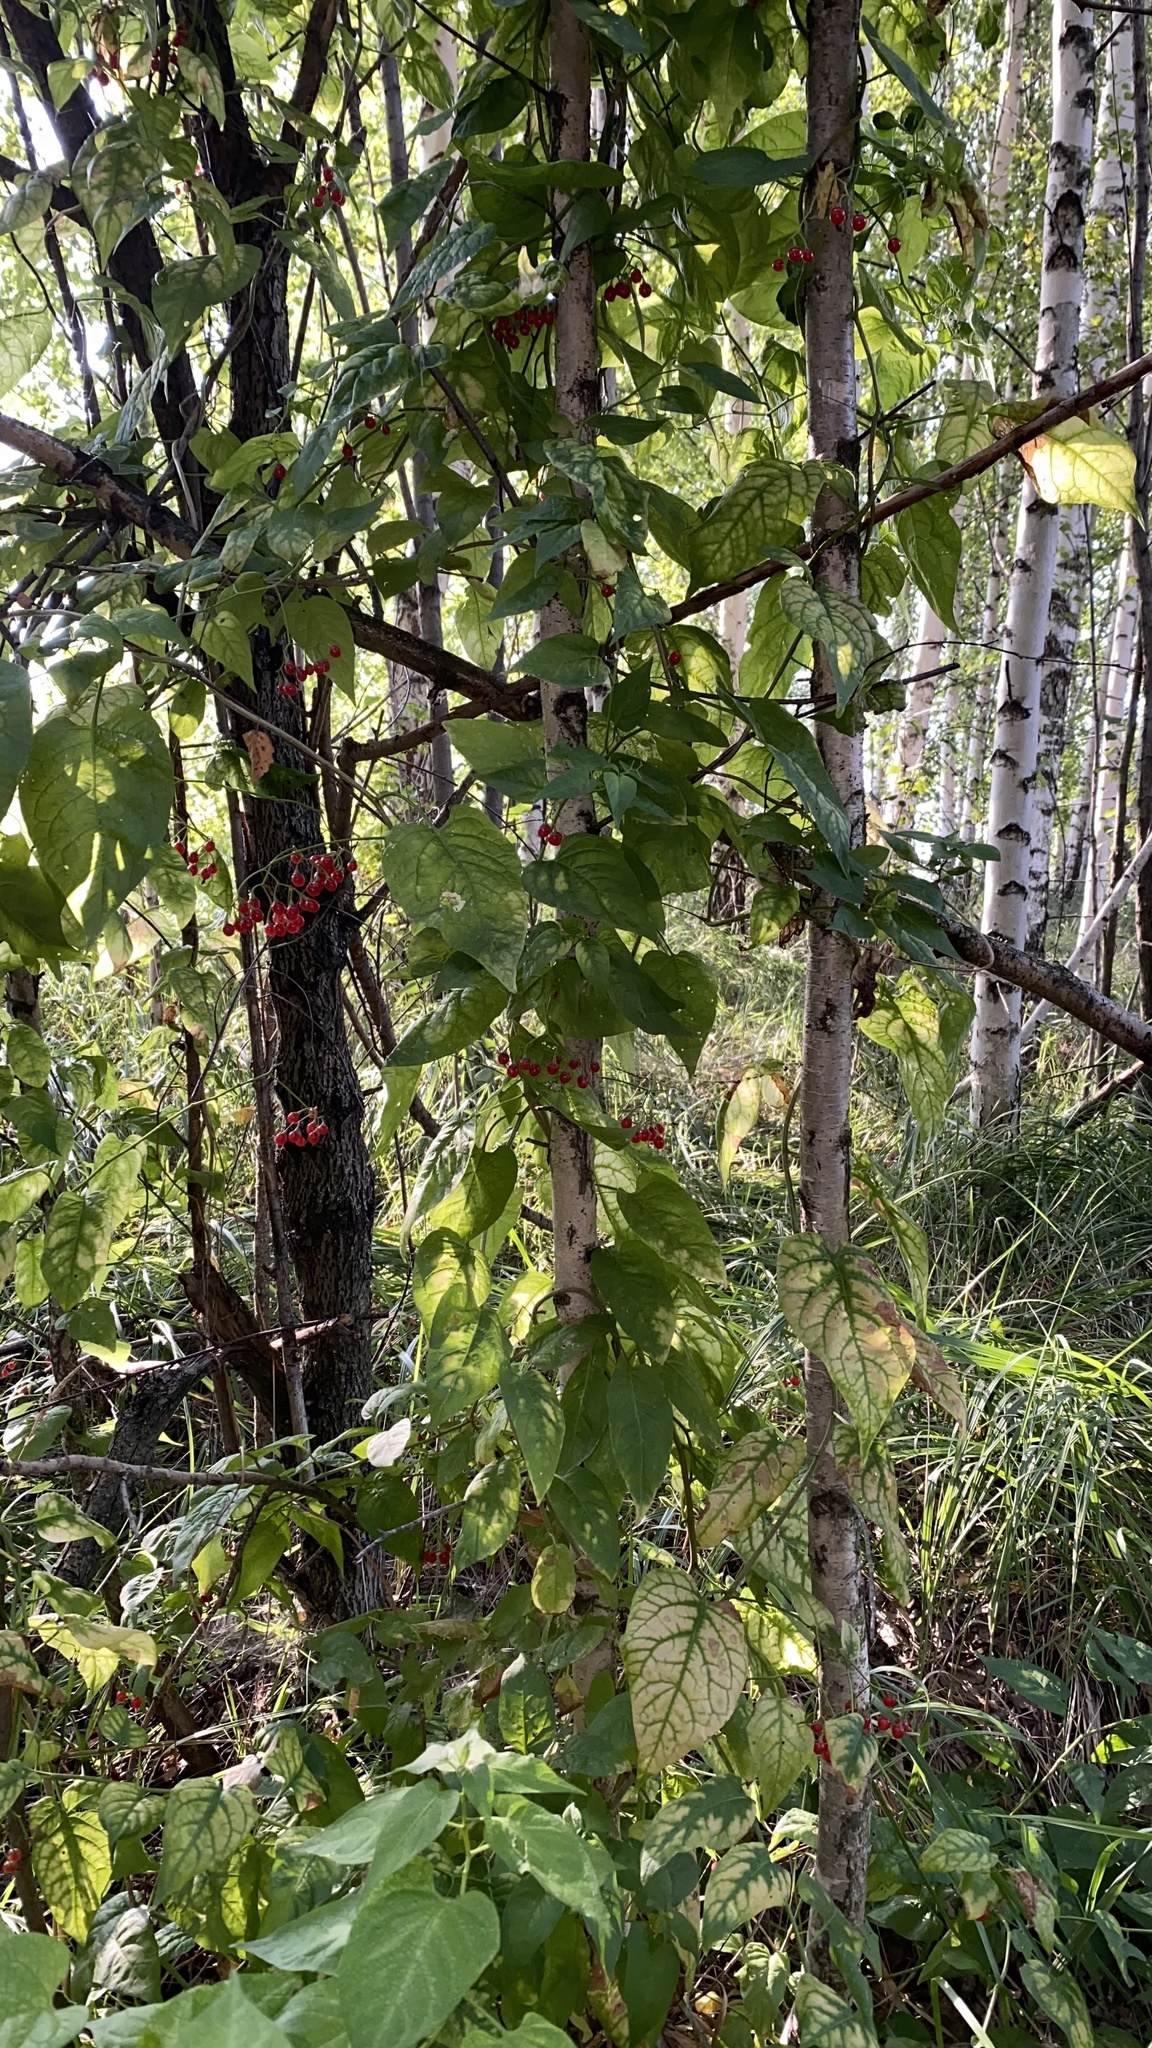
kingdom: Plantae
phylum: Tracheophyta
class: Magnoliopsida
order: Solanales
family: Solanaceae
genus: Solanum
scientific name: Solanum dulcamara
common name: Climbing nightshade
